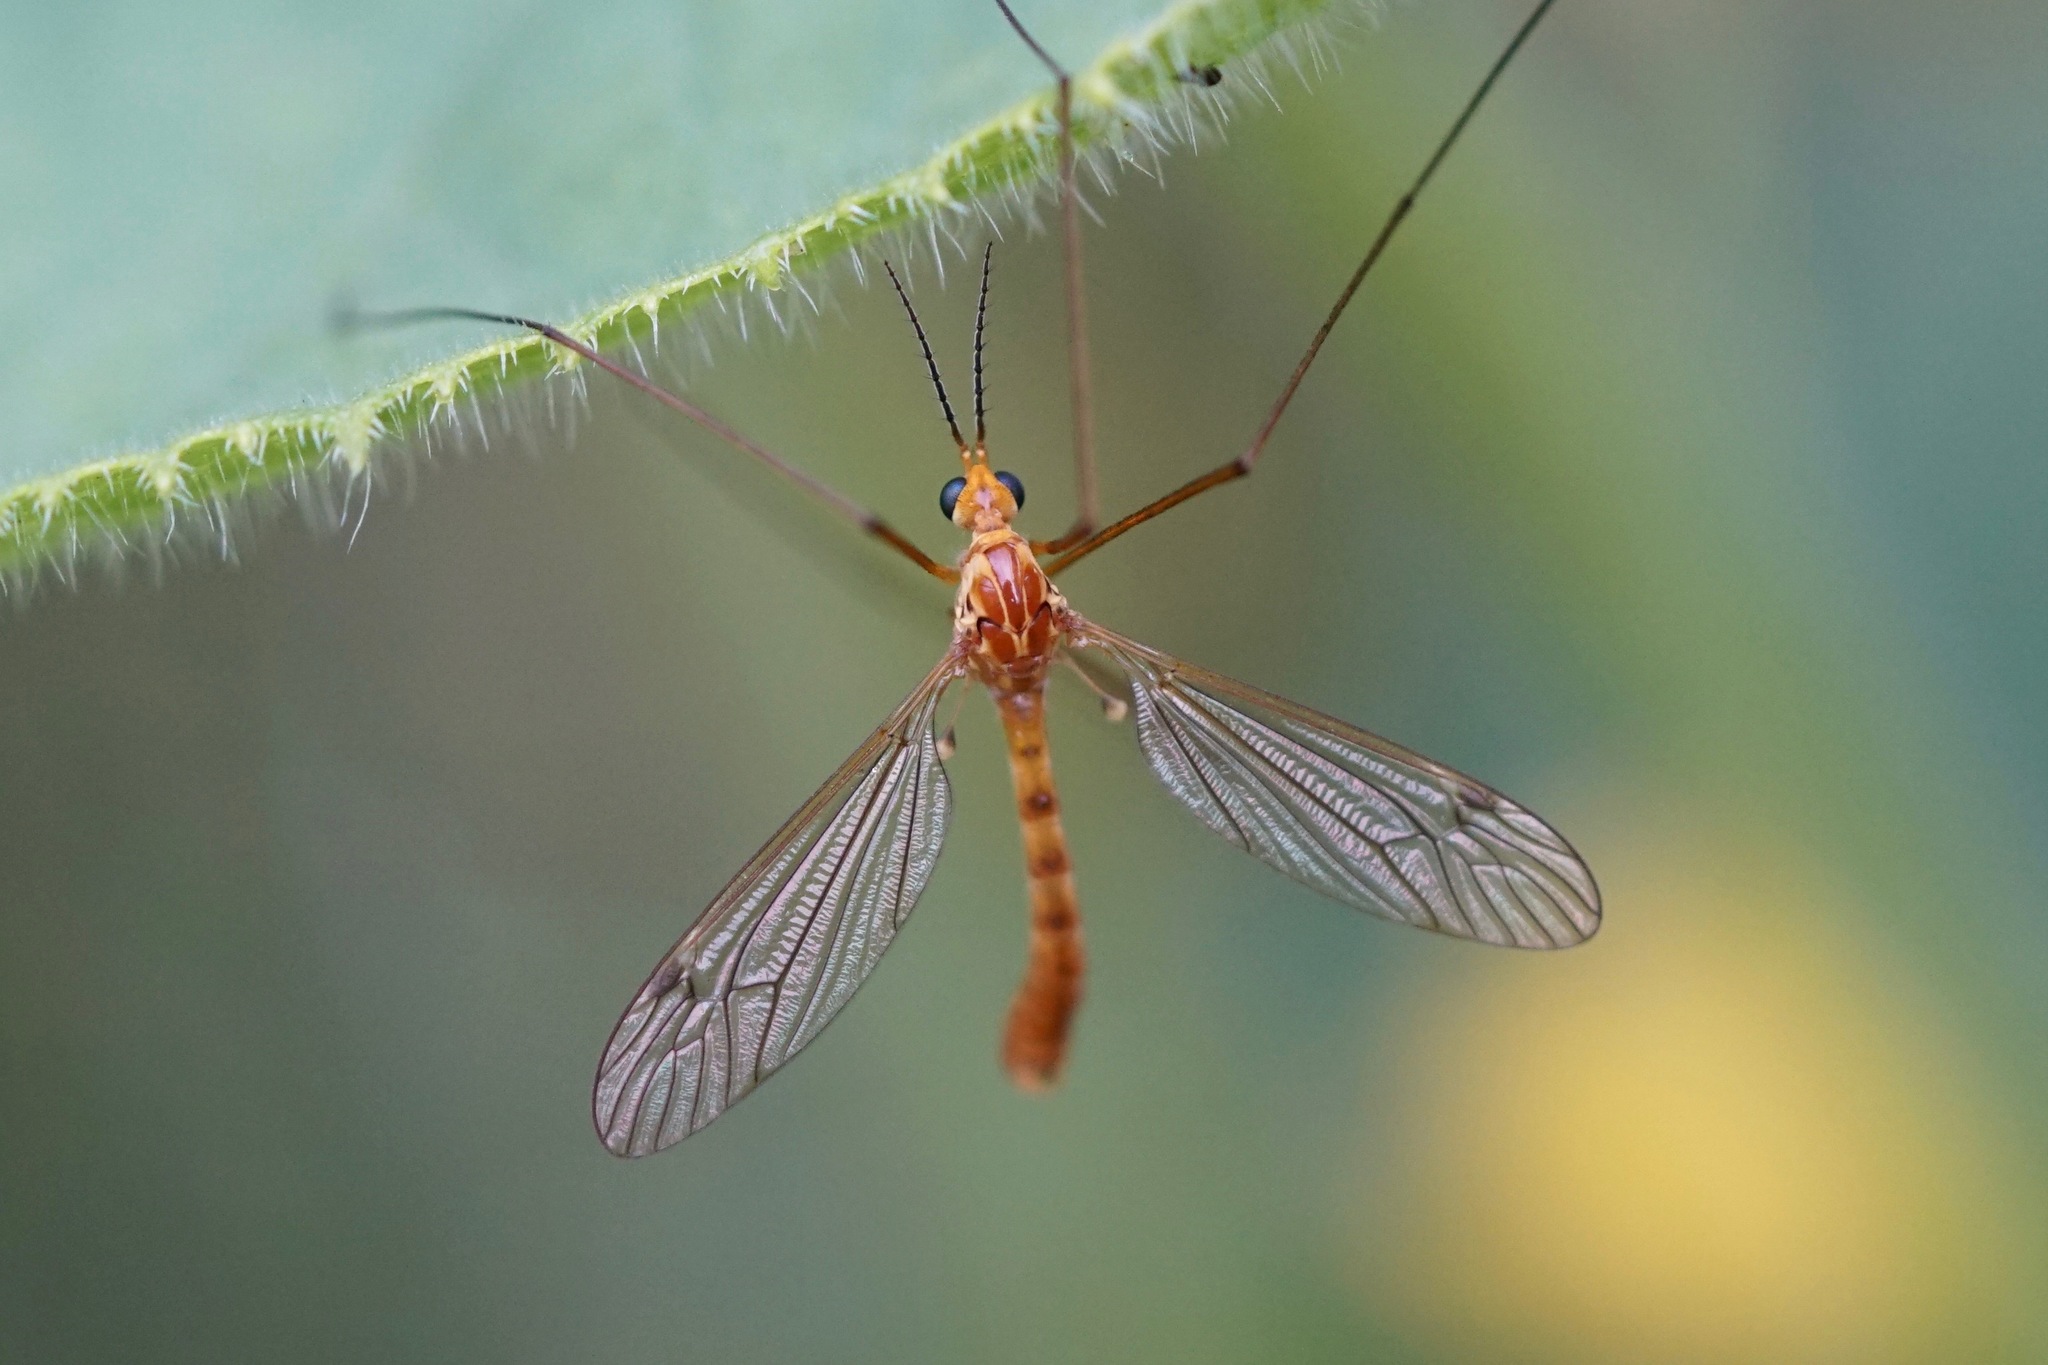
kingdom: Animalia
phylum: Arthropoda
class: Insecta
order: Diptera
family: Tipulidae
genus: Nephrotoma
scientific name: Nephrotoma ferruginea
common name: Ferruginous tiger crane fly
